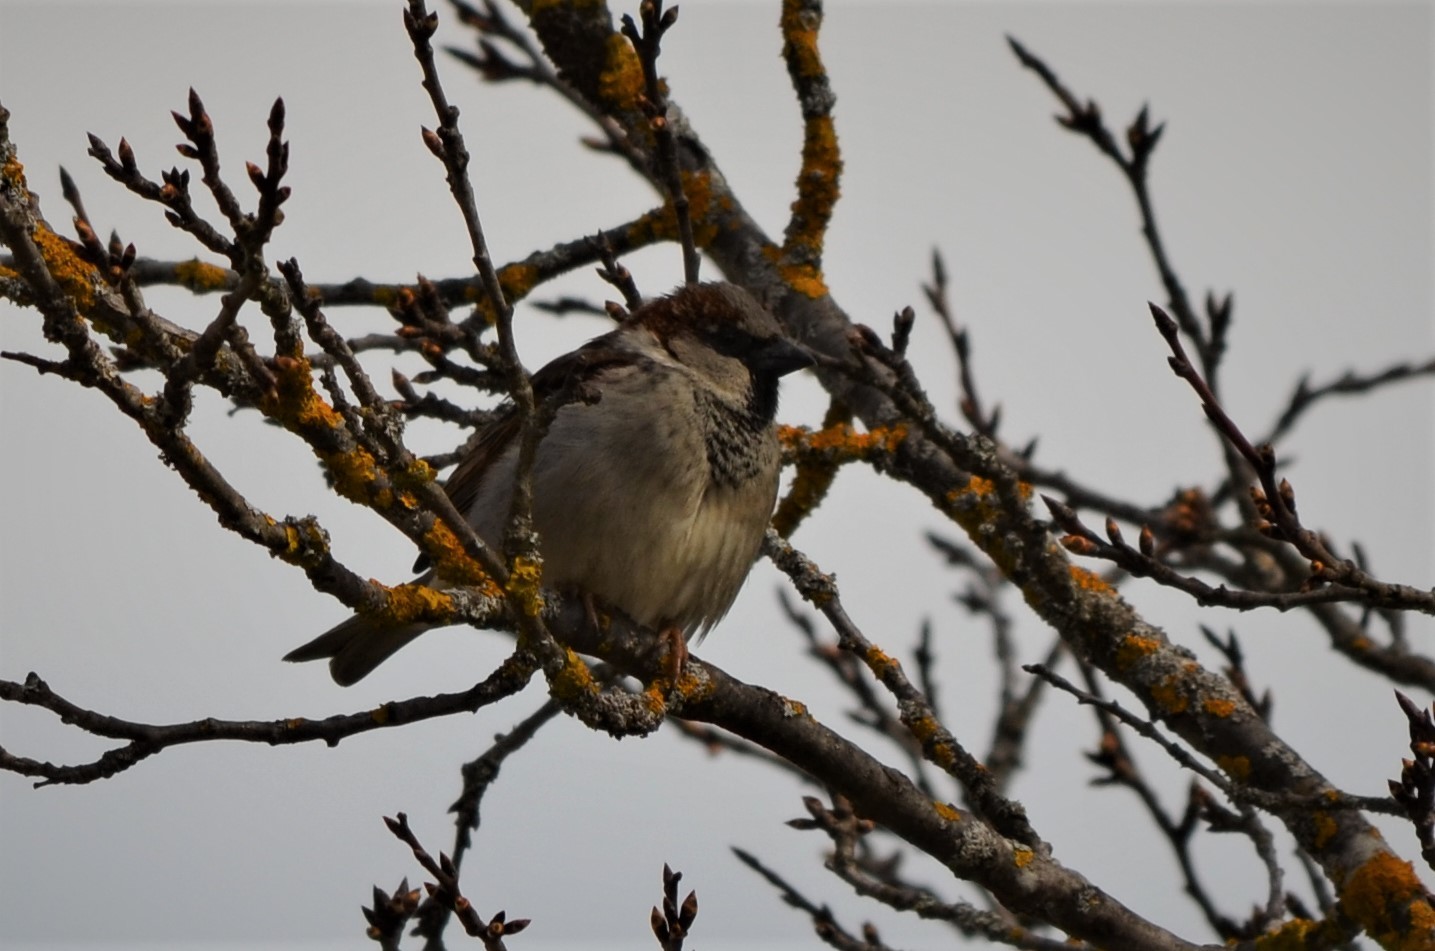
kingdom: Animalia
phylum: Chordata
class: Aves
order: Passeriformes
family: Passeridae
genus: Passer
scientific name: Passer domesticus
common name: House sparrow
